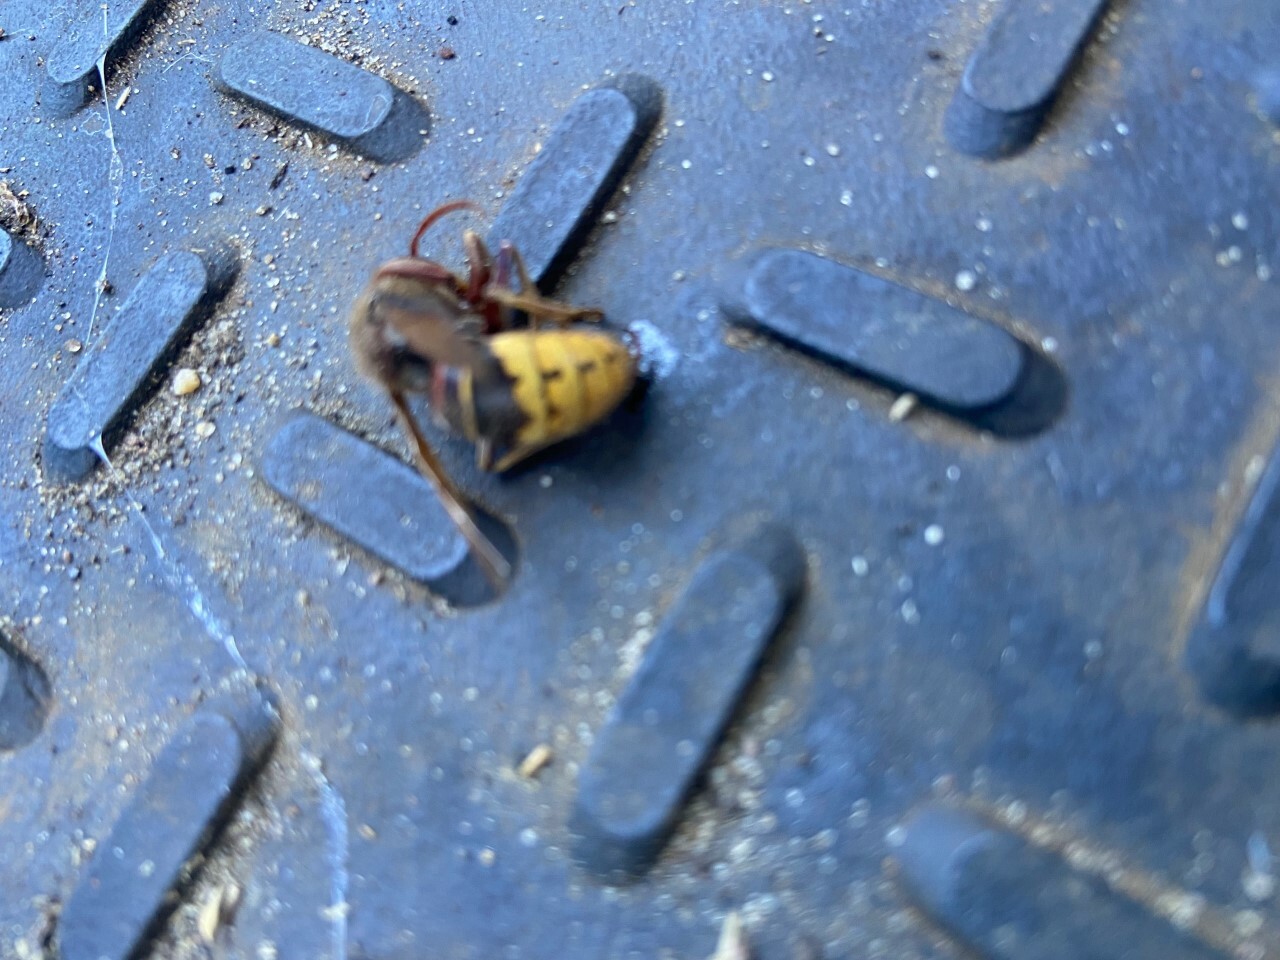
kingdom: Animalia
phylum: Arthropoda
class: Insecta
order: Hymenoptera
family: Vespidae
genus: Vespa
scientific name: Vespa crabro
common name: Hornet
